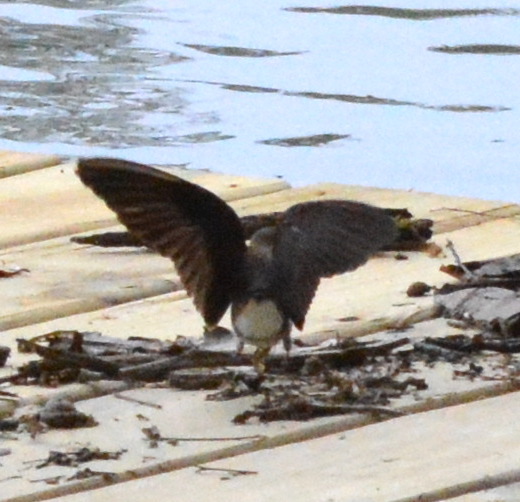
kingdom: Animalia
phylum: Chordata
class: Aves
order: Passeriformes
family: Hirundinidae
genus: Stelgidopteryx
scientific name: Stelgidopteryx serripennis
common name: Northern rough-winged swallow
